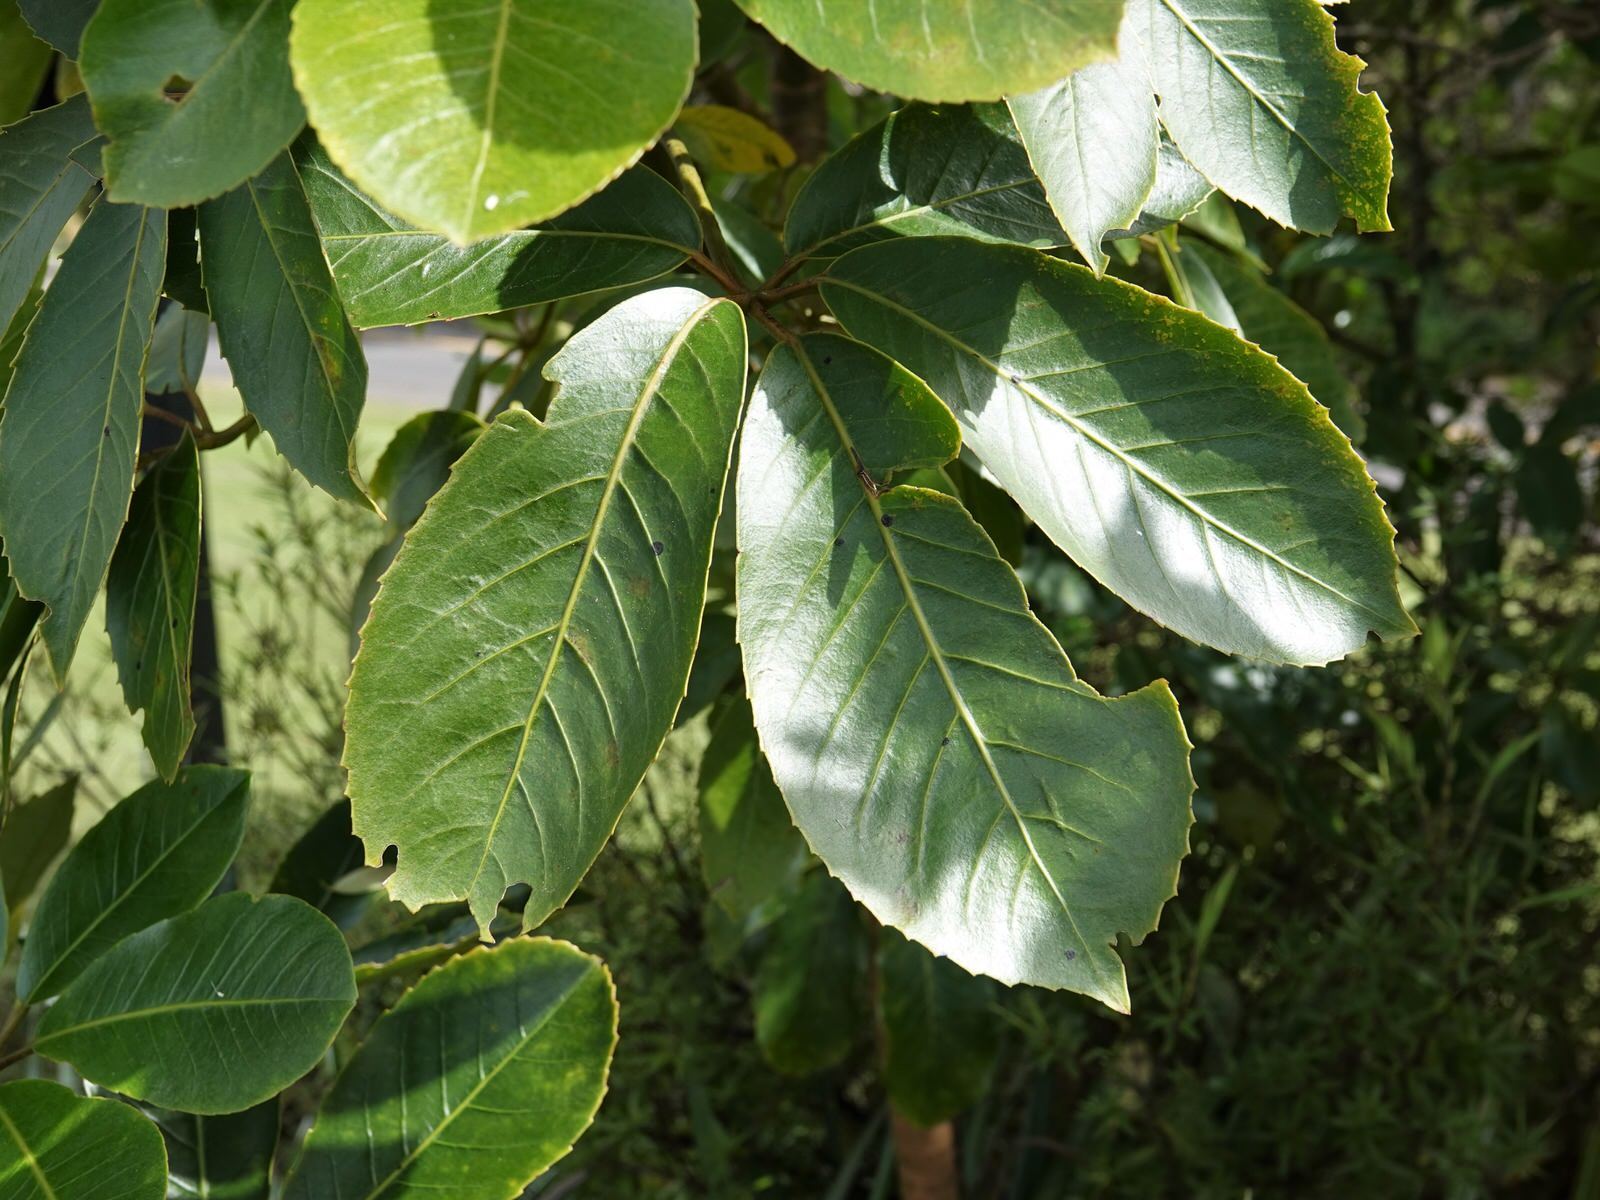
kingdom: Fungi
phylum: Ascomycota
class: Dothideomycetes
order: Asterinales
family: Asterinaceae
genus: Placosoma
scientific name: Placosoma nothopanacis
